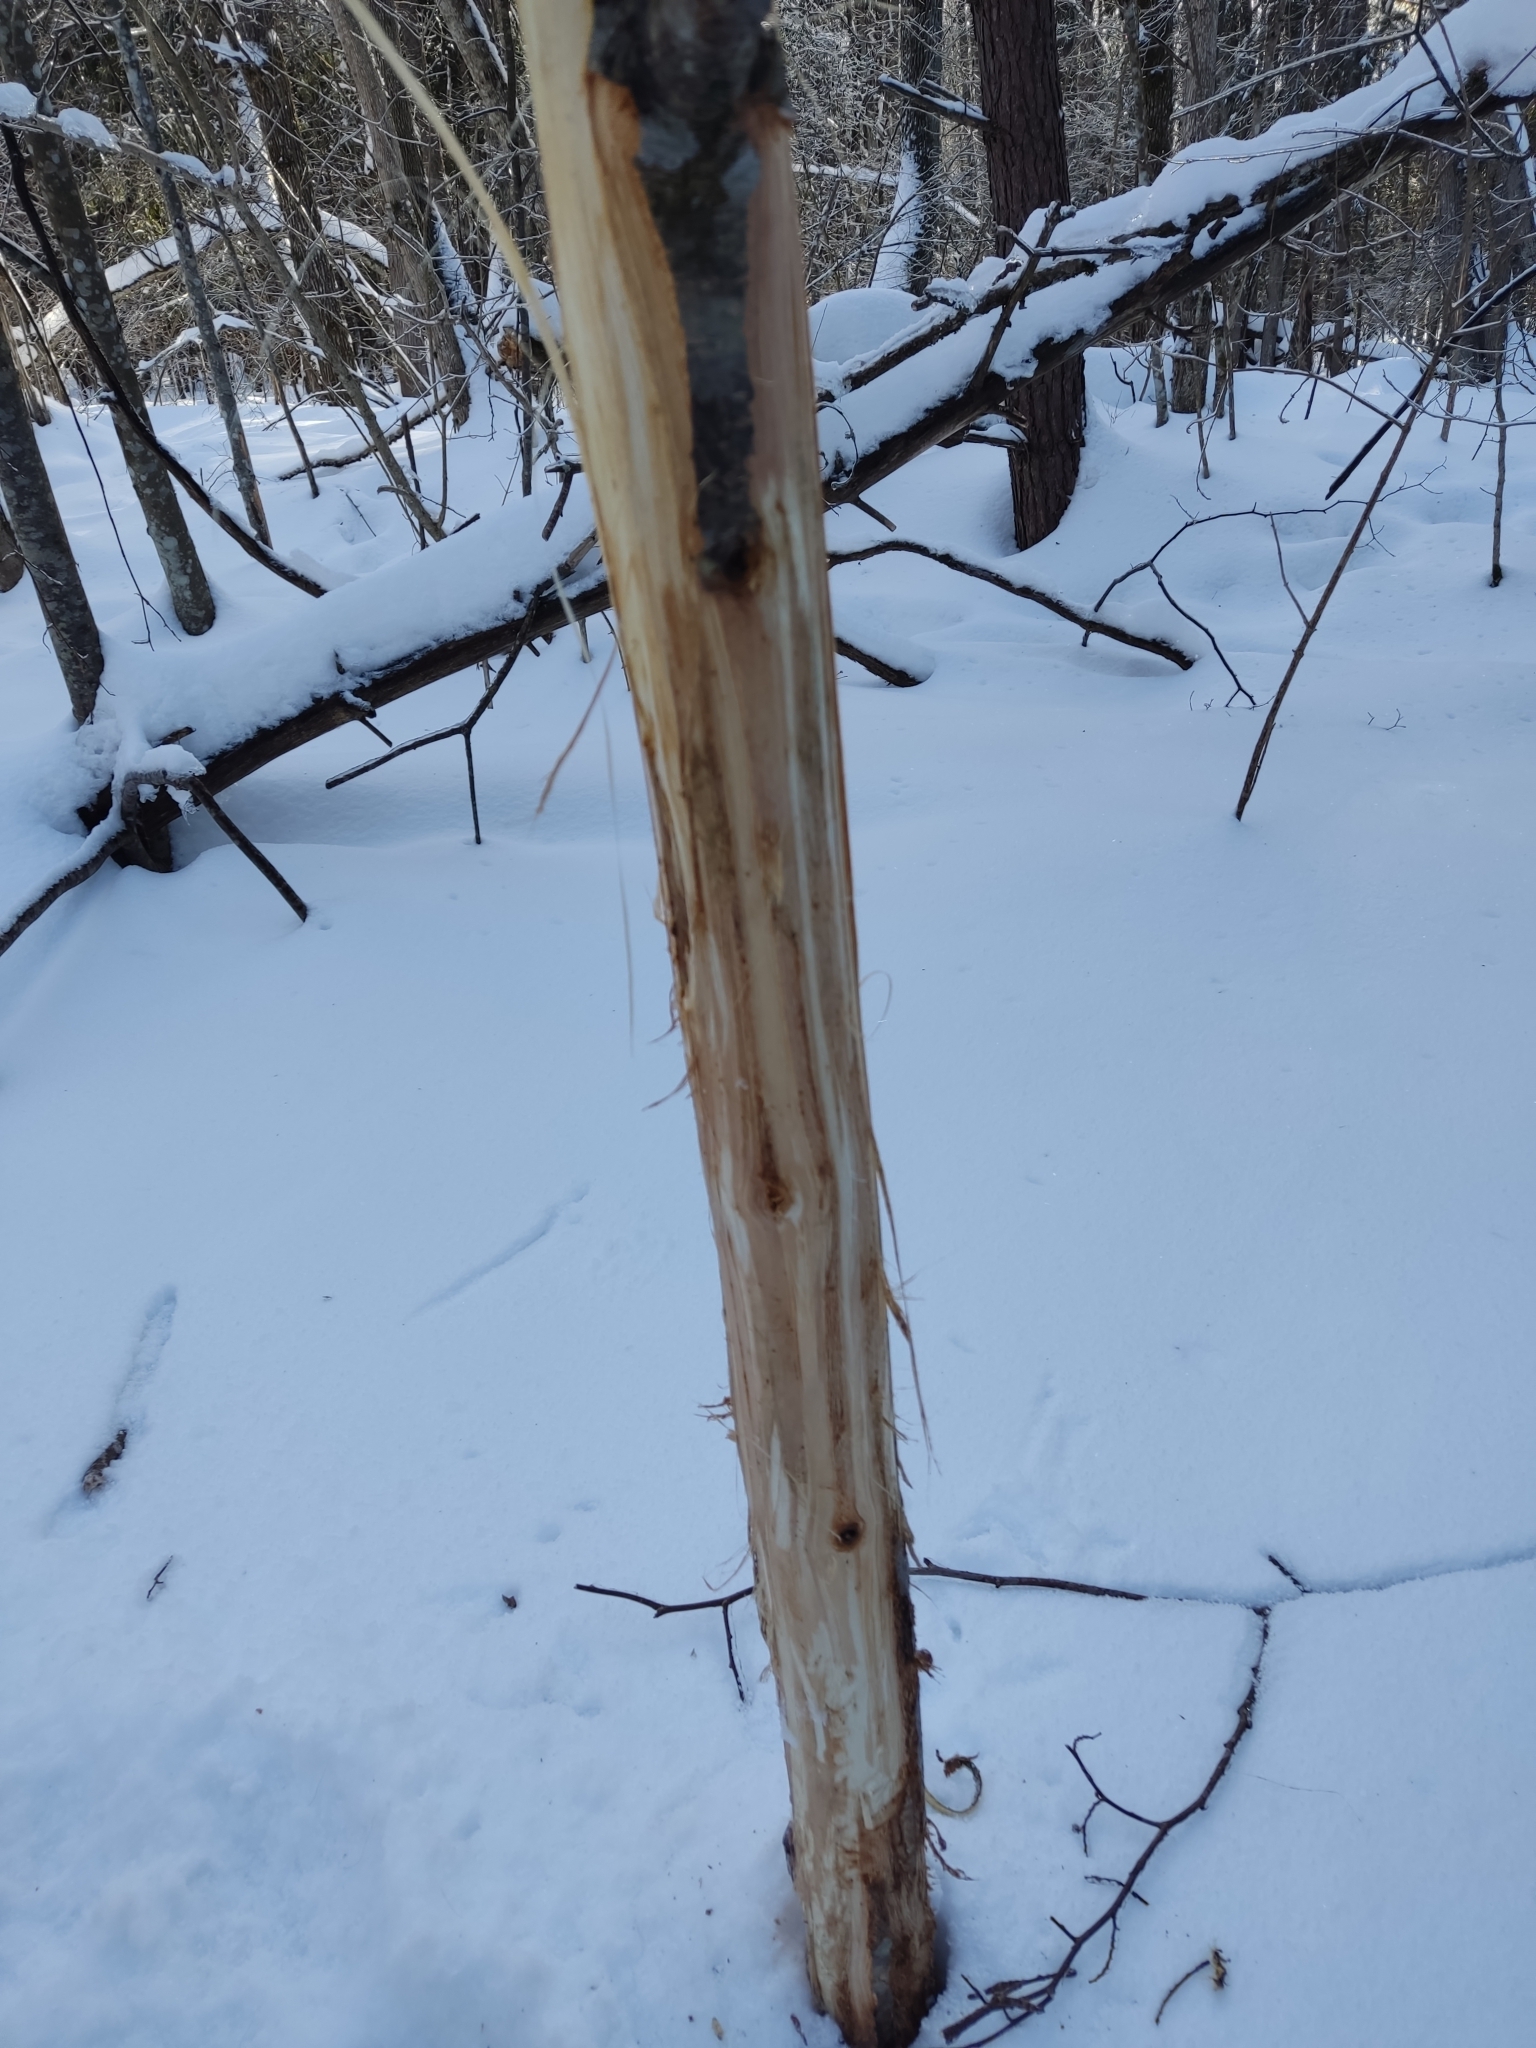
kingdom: Animalia
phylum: Chordata
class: Mammalia
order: Artiodactyla
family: Bovidae
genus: Bison
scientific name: Bison bonasus
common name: European bison
